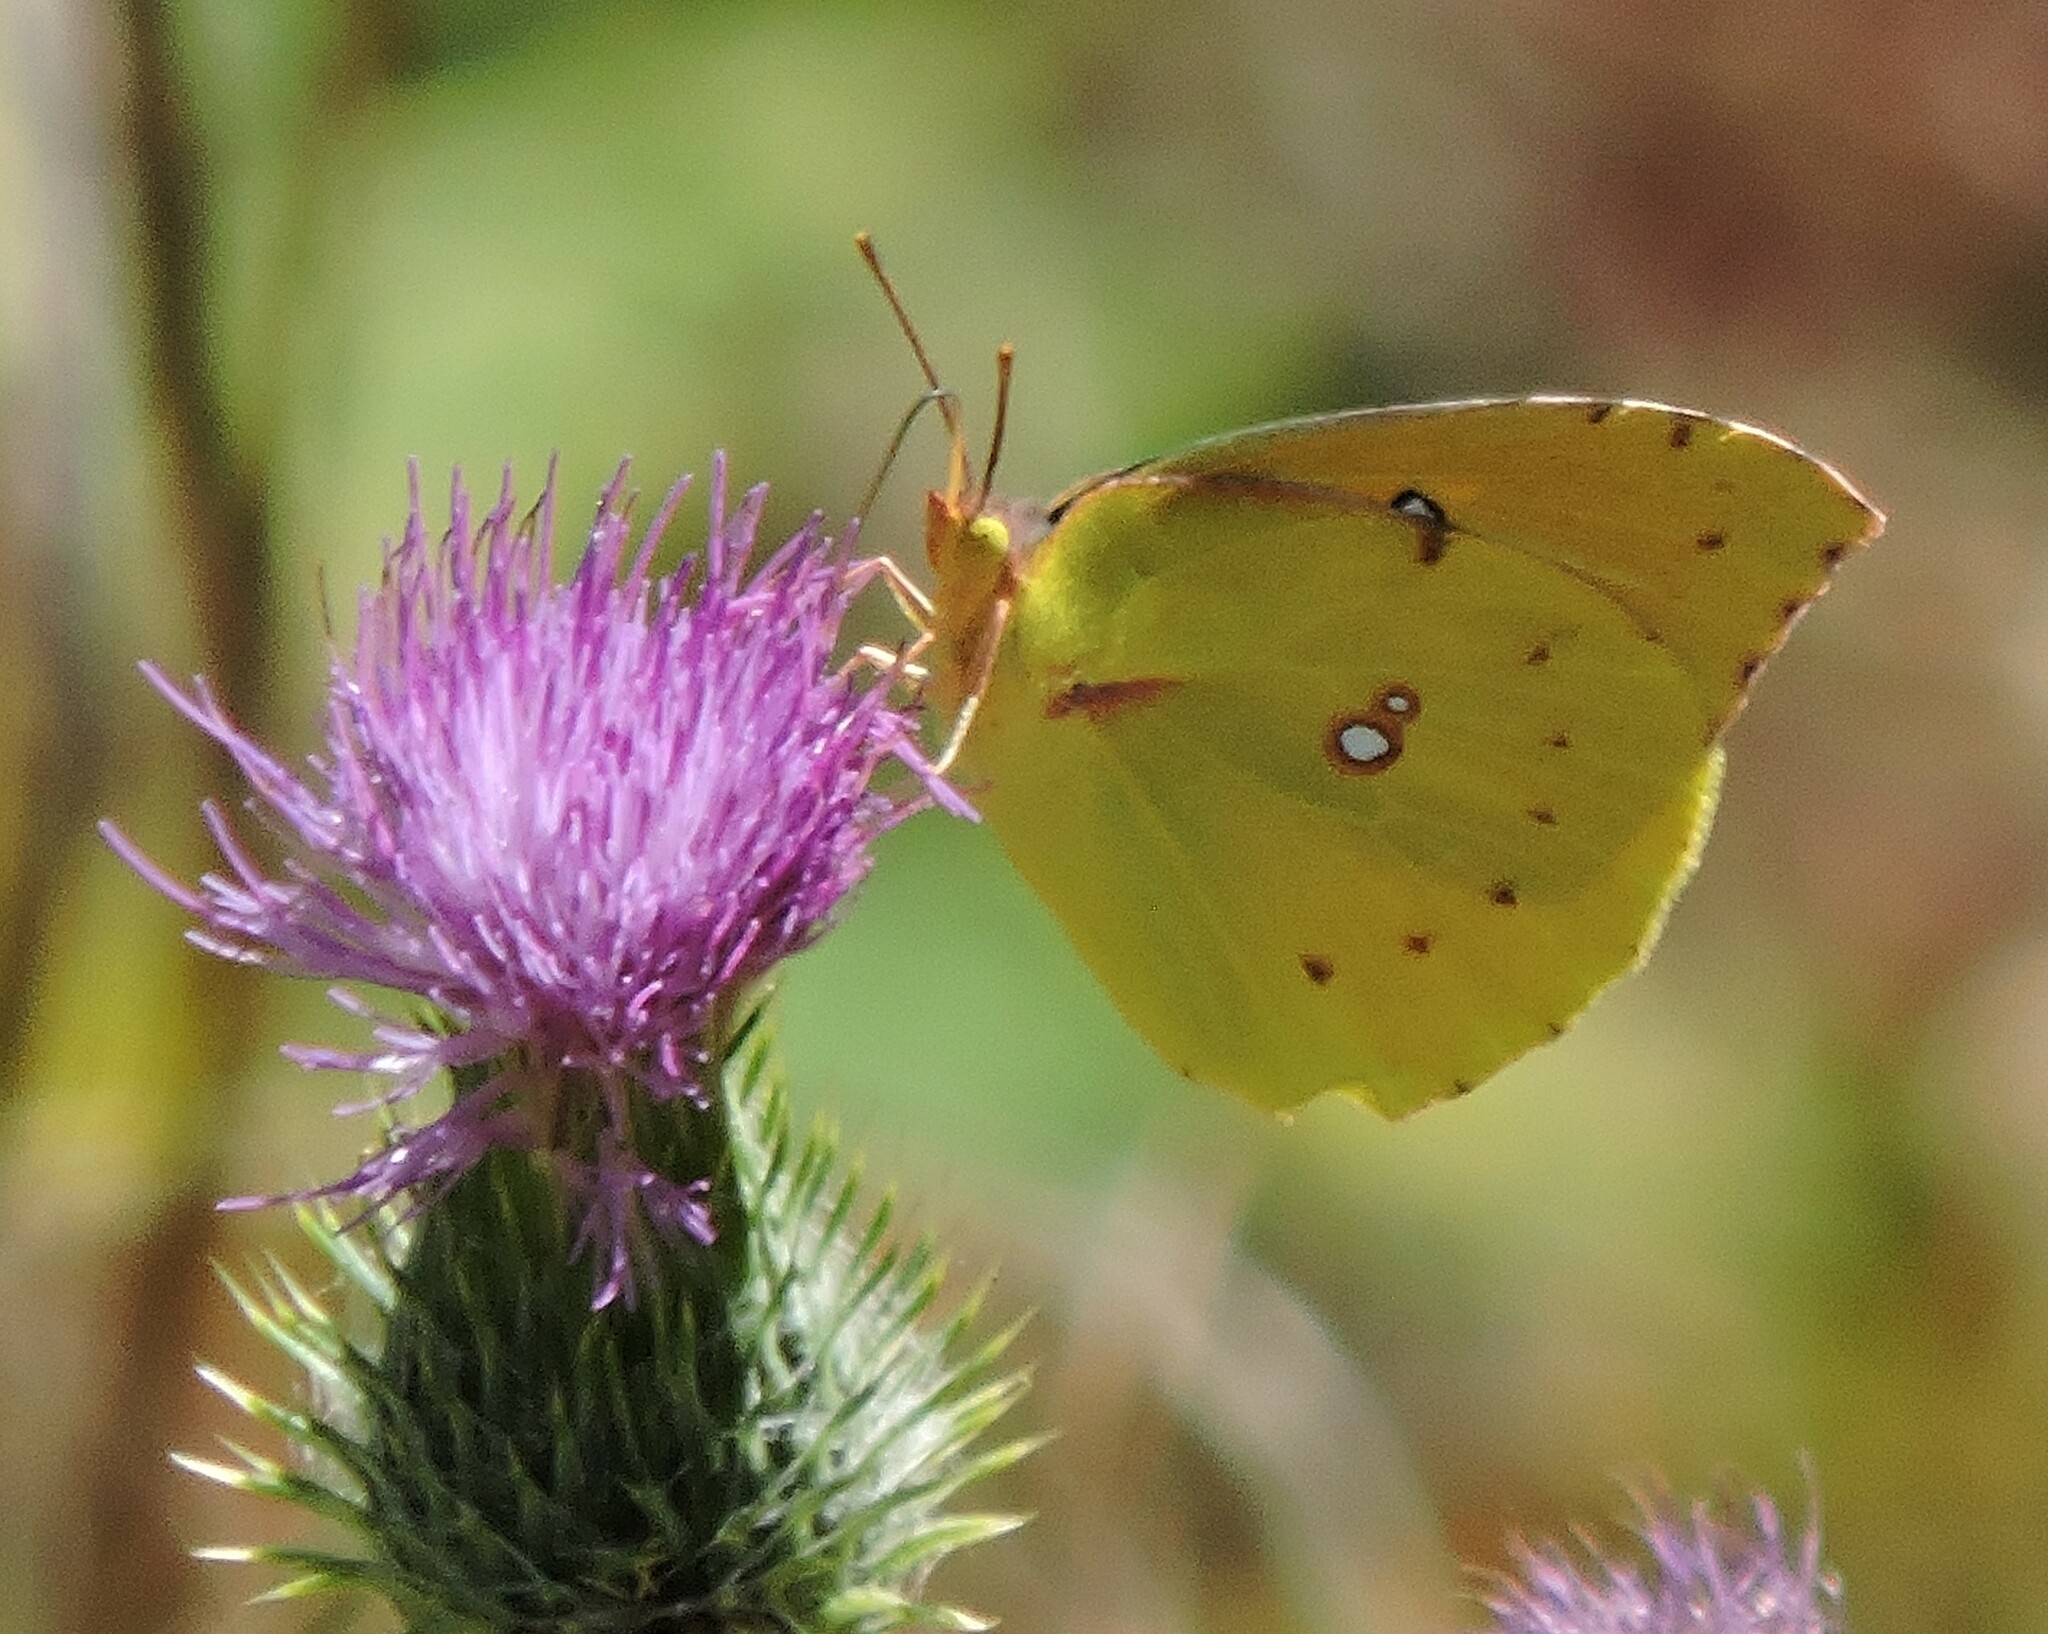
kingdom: Animalia
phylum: Arthropoda
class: Insecta
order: Lepidoptera
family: Pieridae
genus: Zerene
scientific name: Zerene eurydice
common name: California dogface
